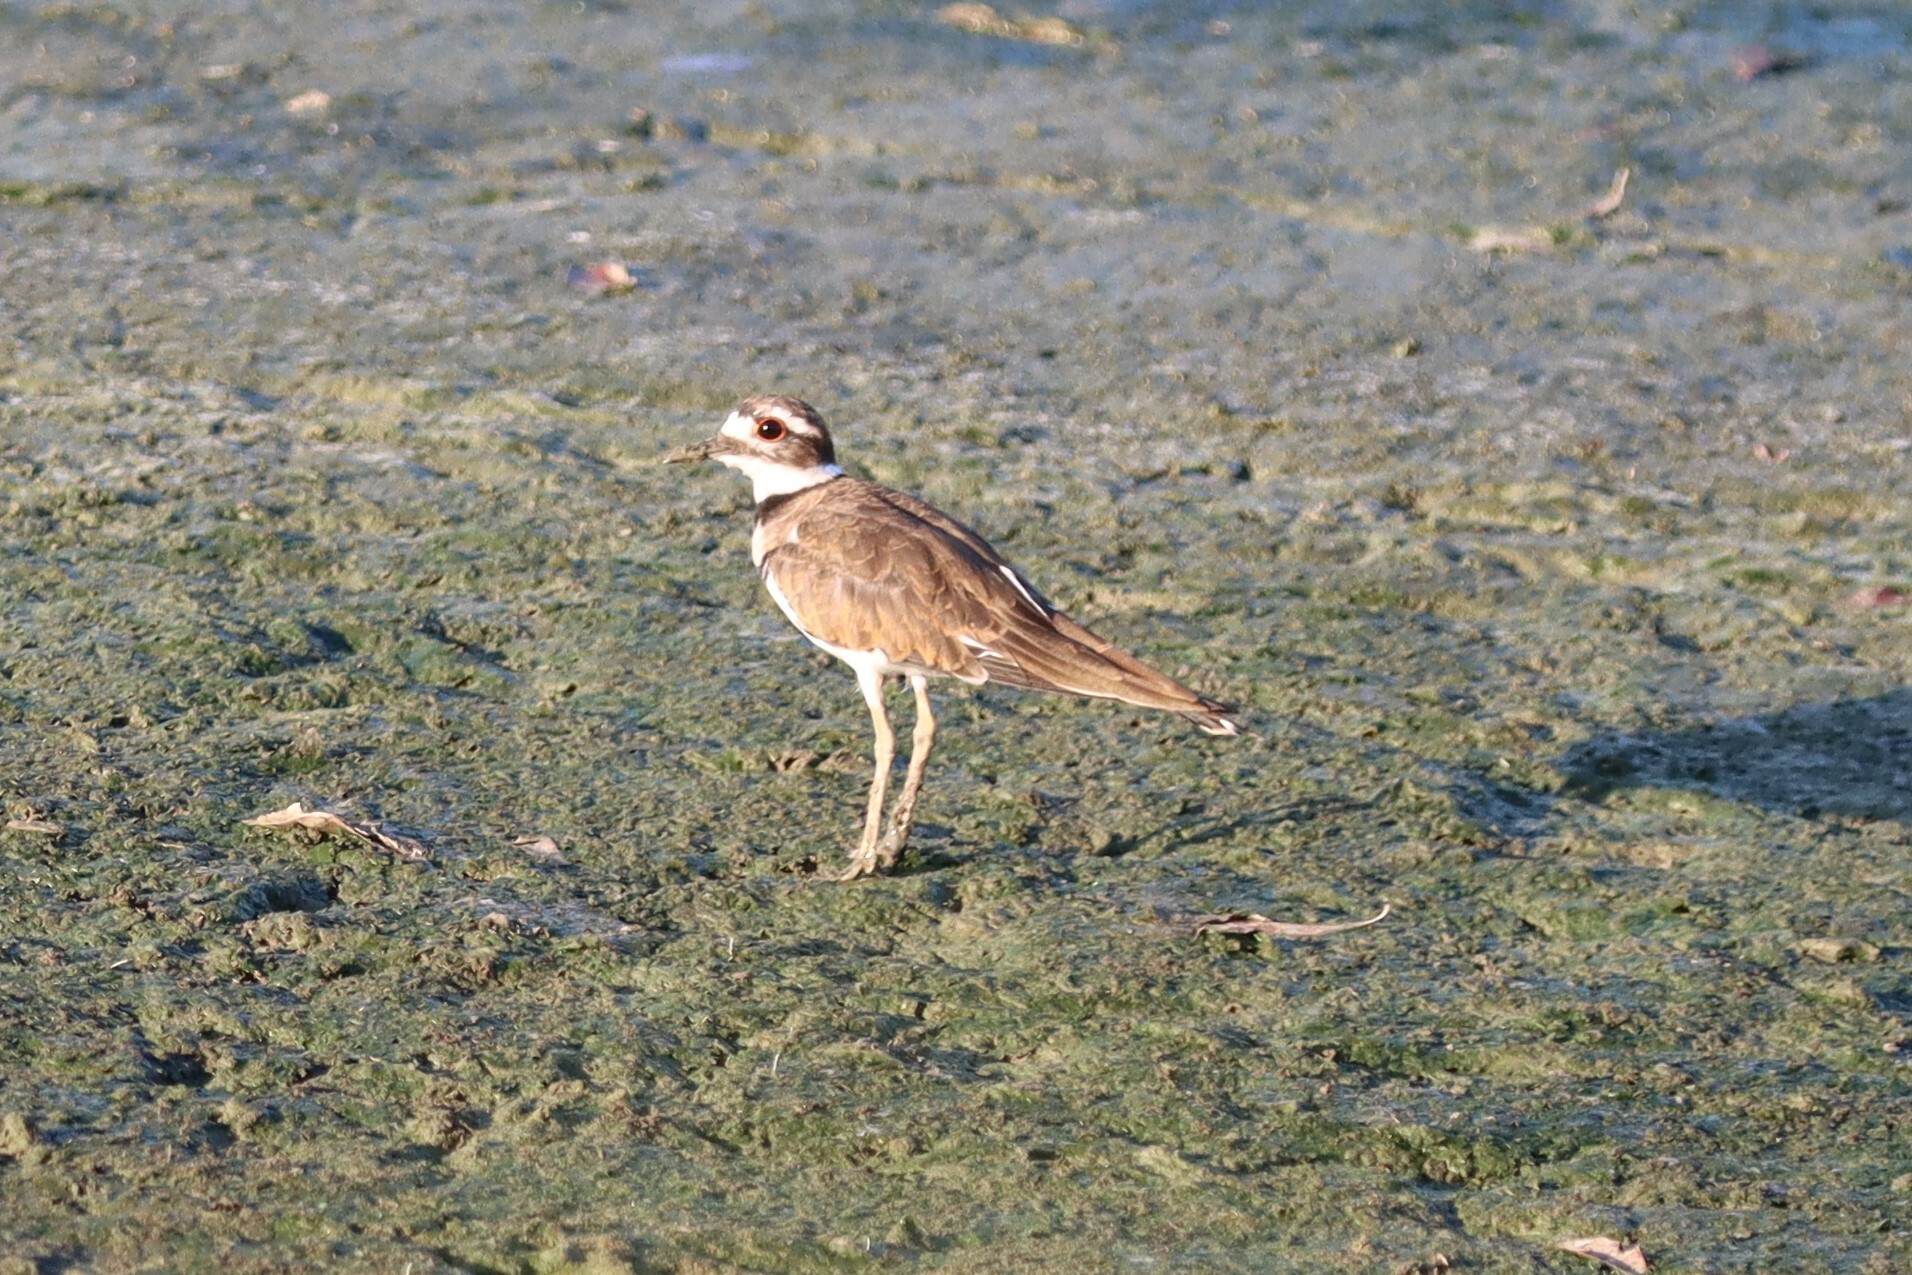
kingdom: Animalia
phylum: Chordata
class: Aves
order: Charadriiformes
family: Charadriidae
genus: Charadrius
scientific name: Charadrius vociferus
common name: Killdeer
